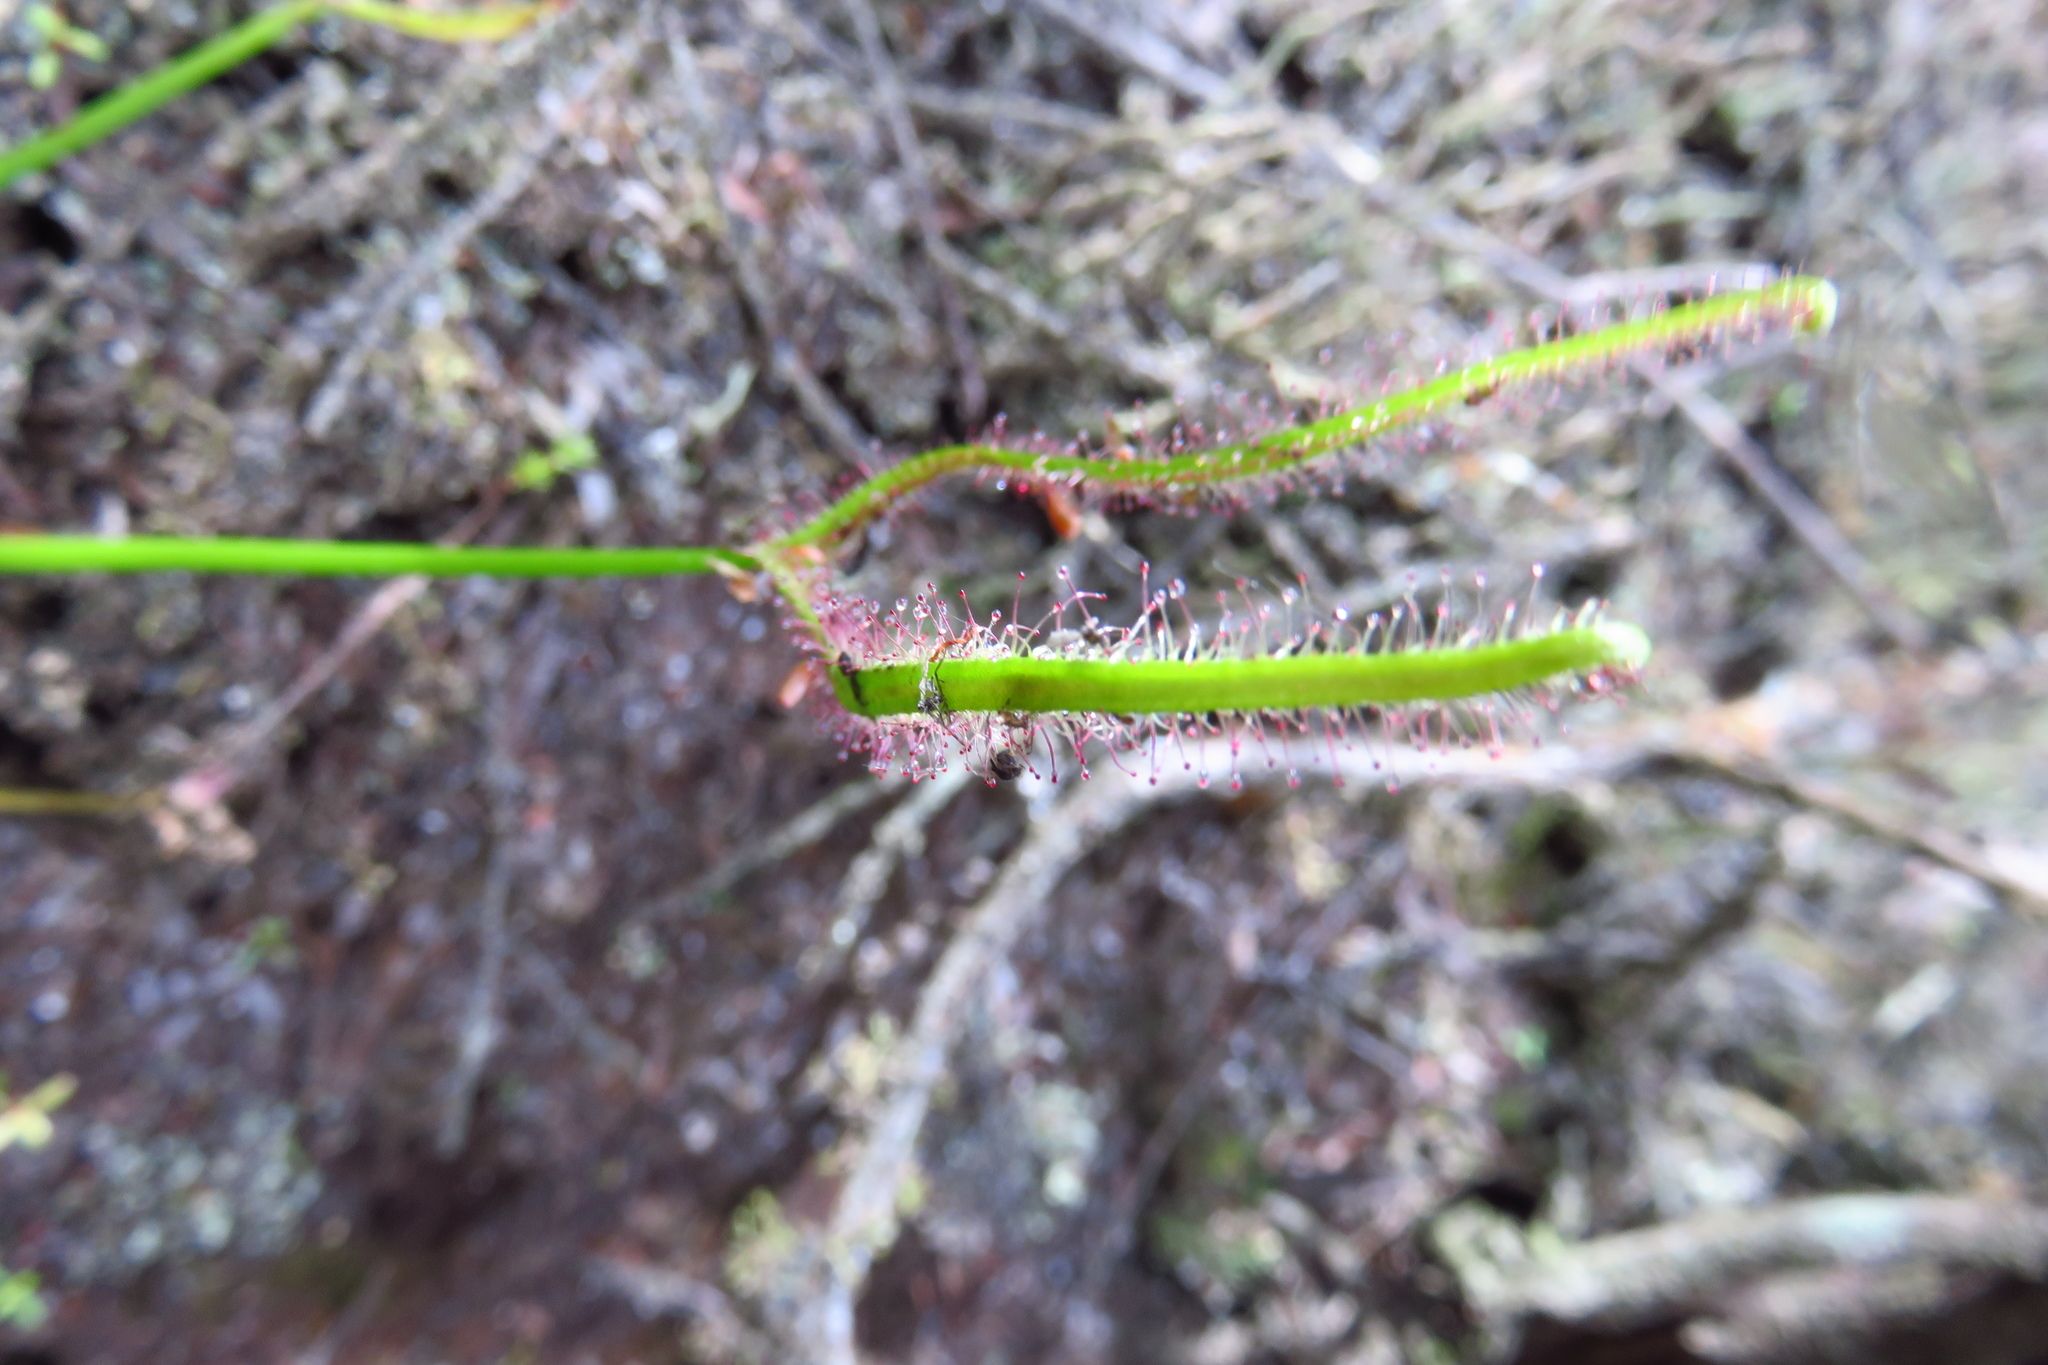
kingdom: Plantae
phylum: Tracheophyta
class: Magnoliopsida
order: Caryophyllales
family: Droseraceae
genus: Drosera
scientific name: Drosera binata
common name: Forked sundew
